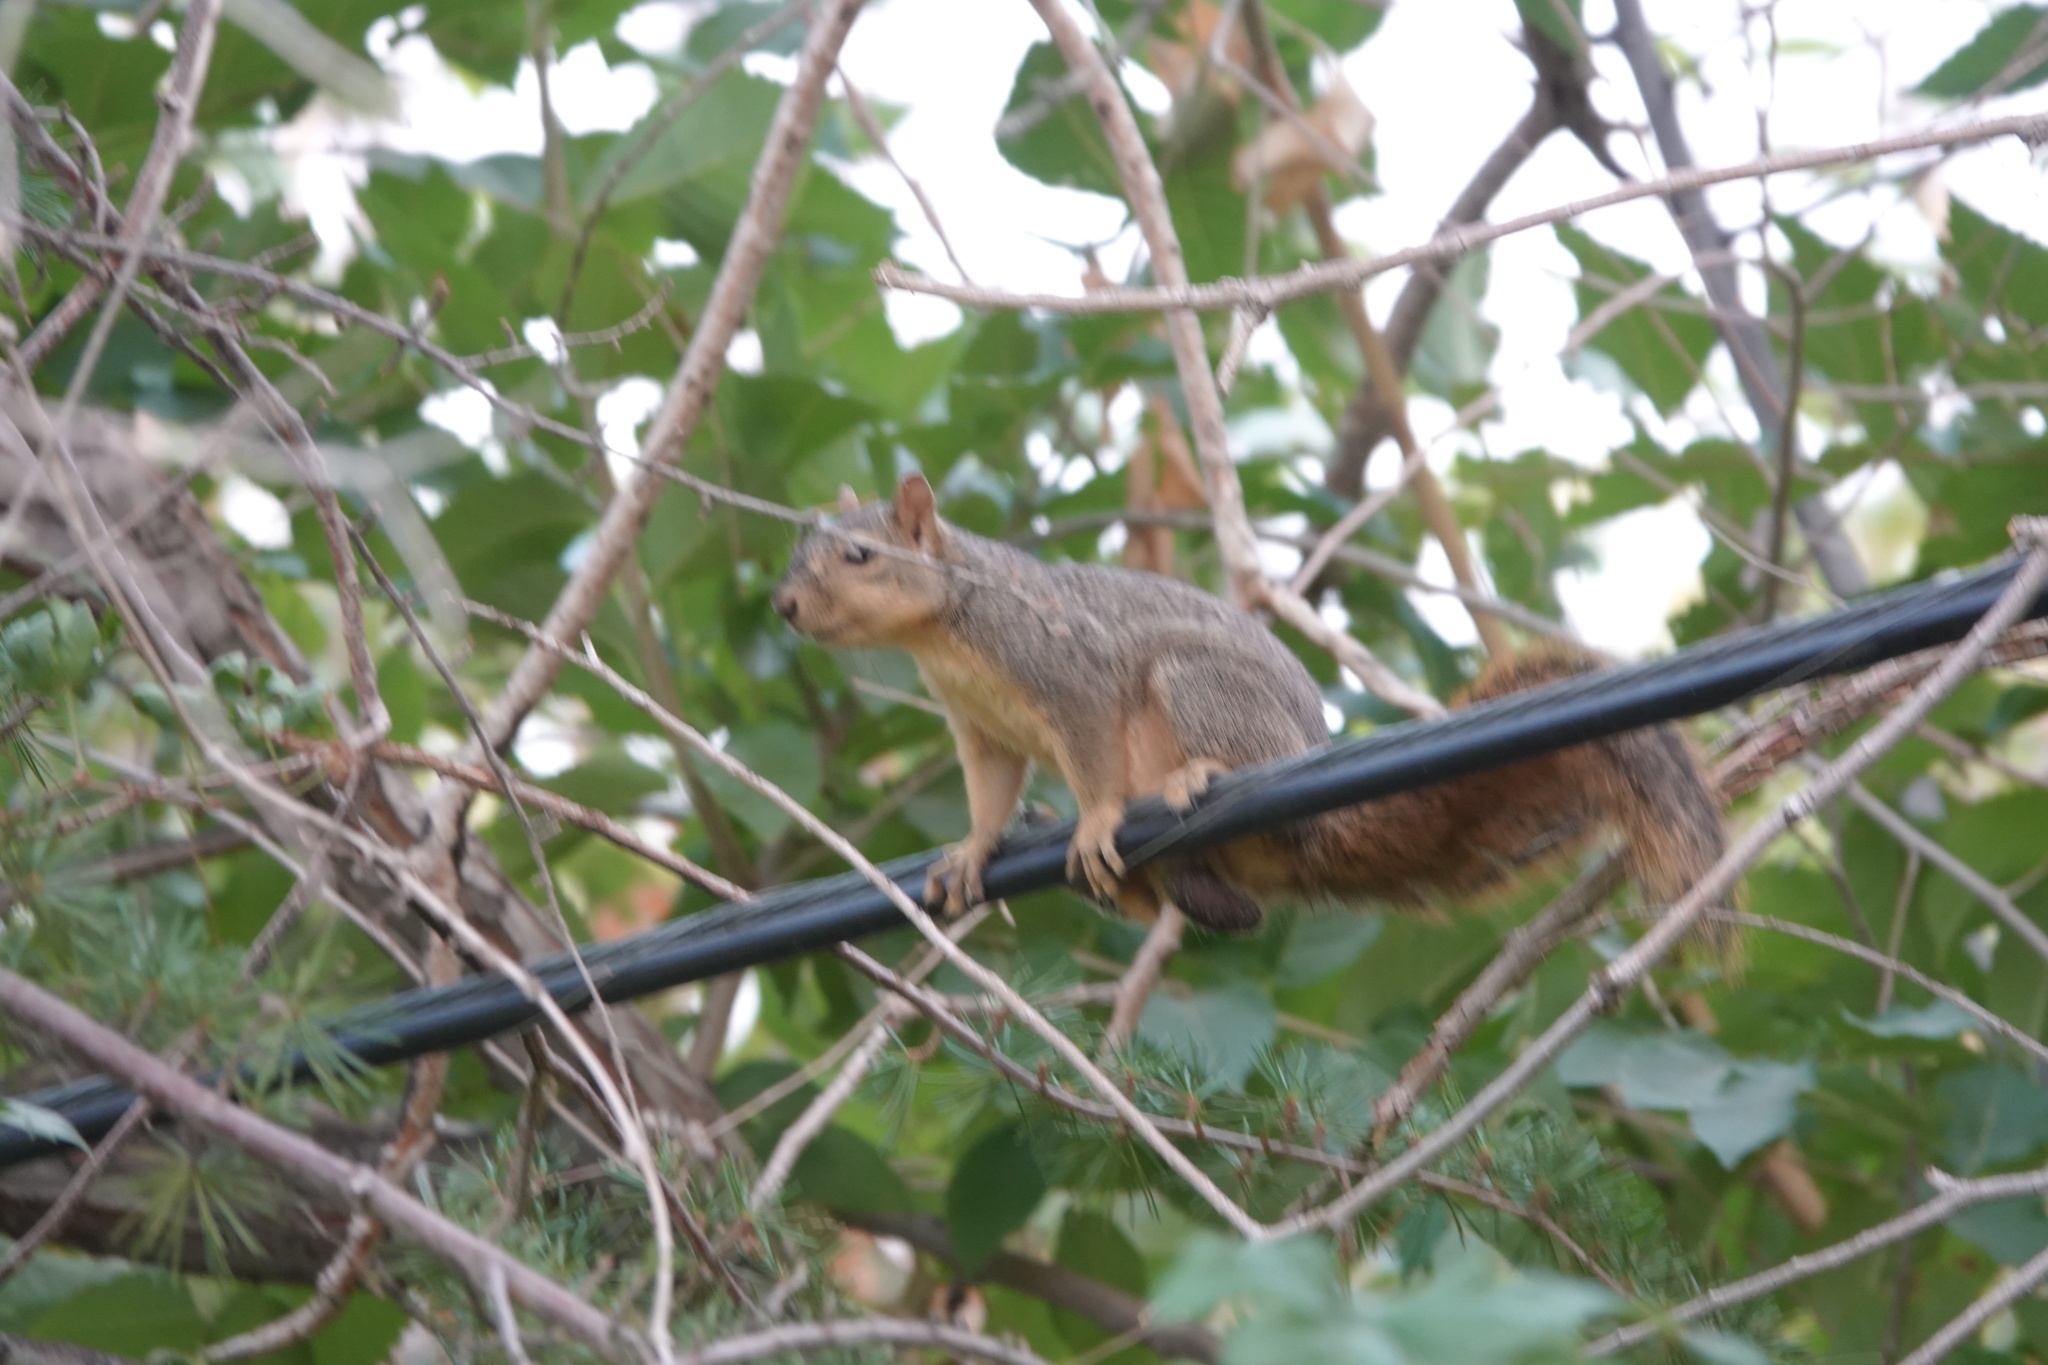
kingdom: Animalia
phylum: Chordata
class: Mammalia
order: Rodentia
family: Sciuridae
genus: Sciurus
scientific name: Sciurus niger
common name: Fox squirrel
